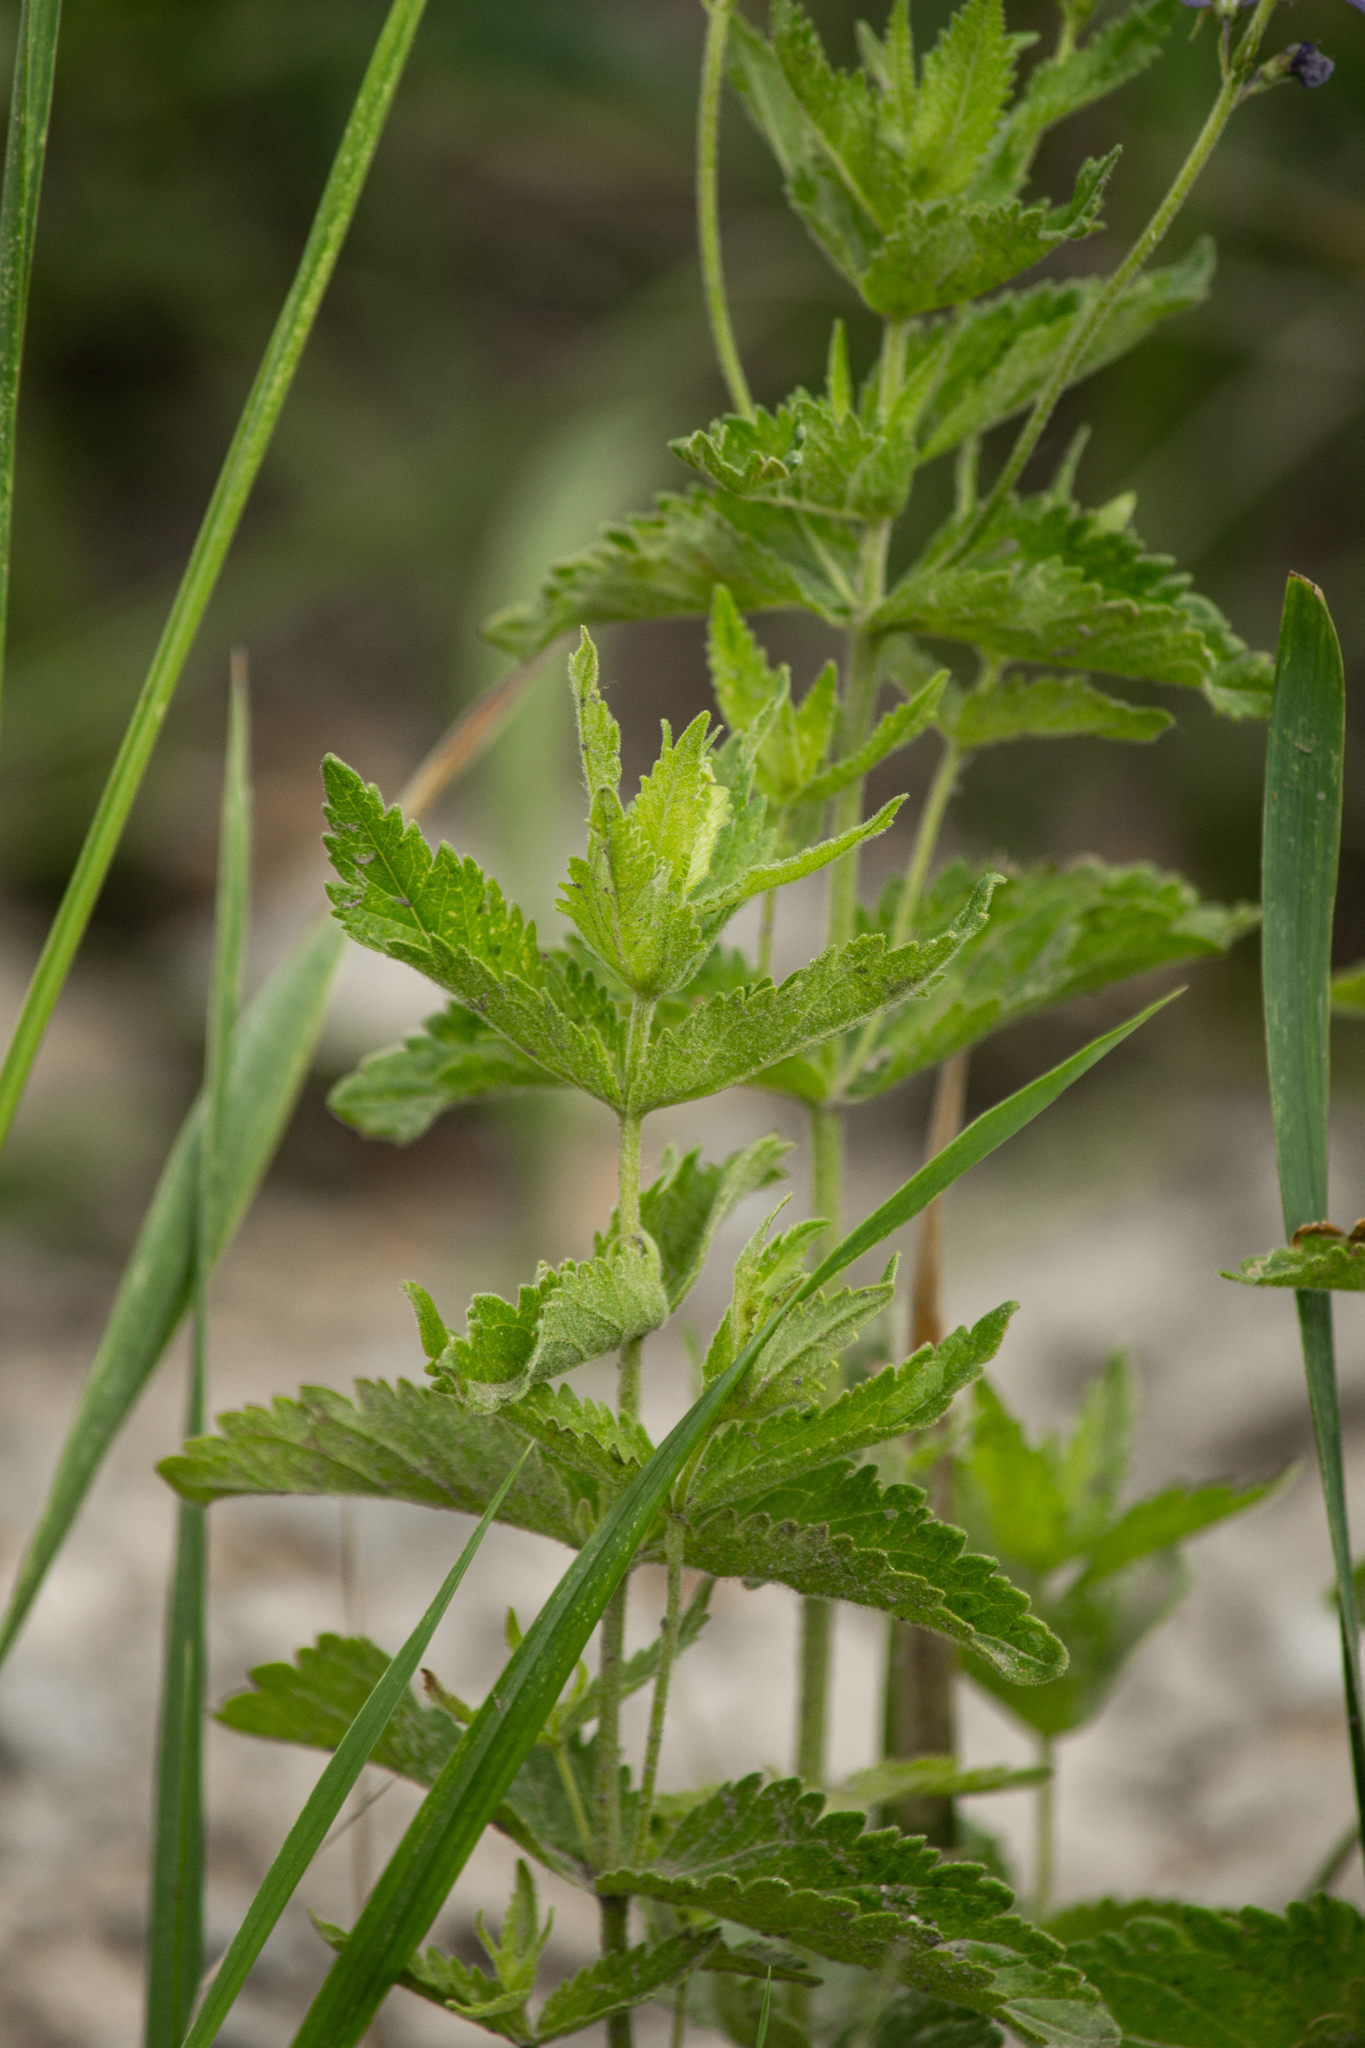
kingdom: Plantae
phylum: Tracheophyta
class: Magnoliopsida
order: Lamiales
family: Plantaginaceae
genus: Veronica
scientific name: Veronica teucrium
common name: Large speedwell
